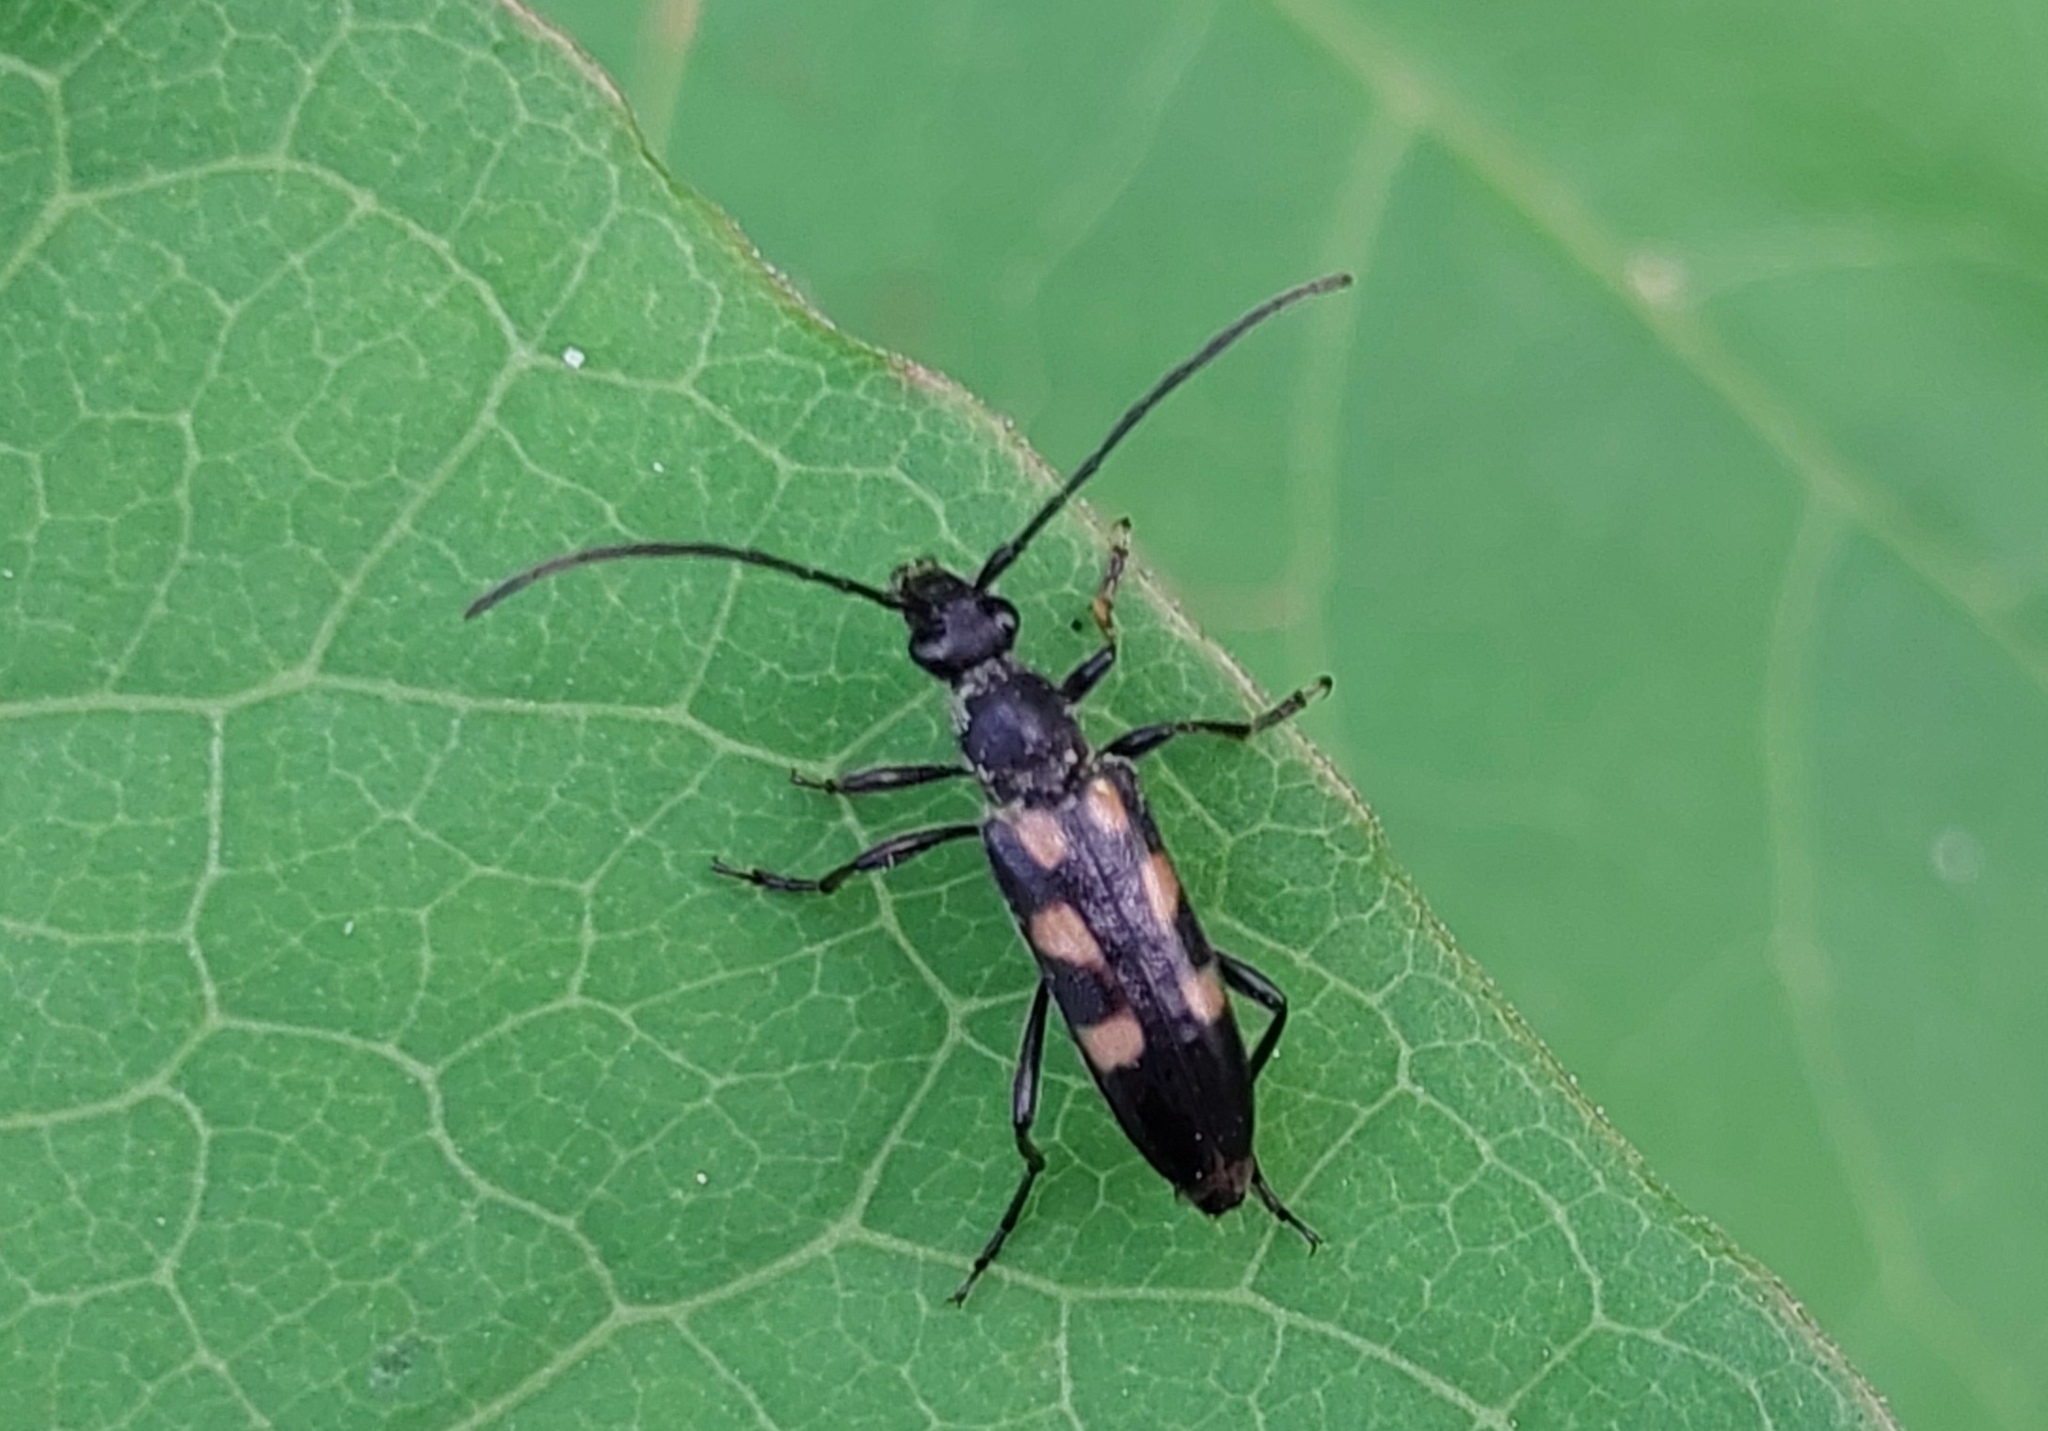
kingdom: Animalia
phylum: Arthropoda
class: Insecta
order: Coleoptera
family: Cerambycidae
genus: Anoplodera
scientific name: Anoplodera sexguttata
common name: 6 spotted longhorn
